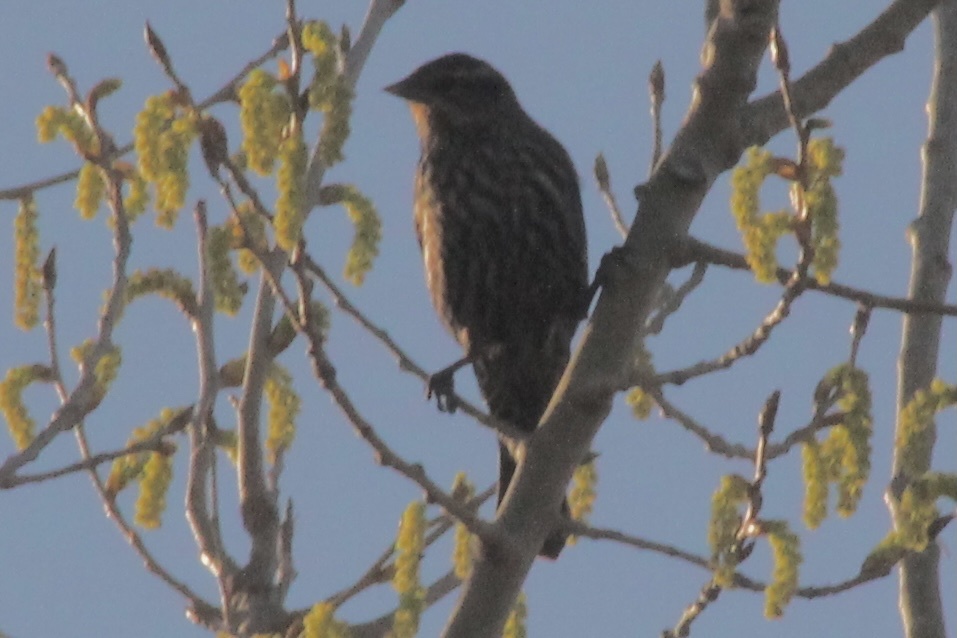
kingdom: Animalia
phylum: Chordata
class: Aves
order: Passeriformes
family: Icteridae
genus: Agelaius
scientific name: Agelaius phoeniceus
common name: Red-winged blackbird
